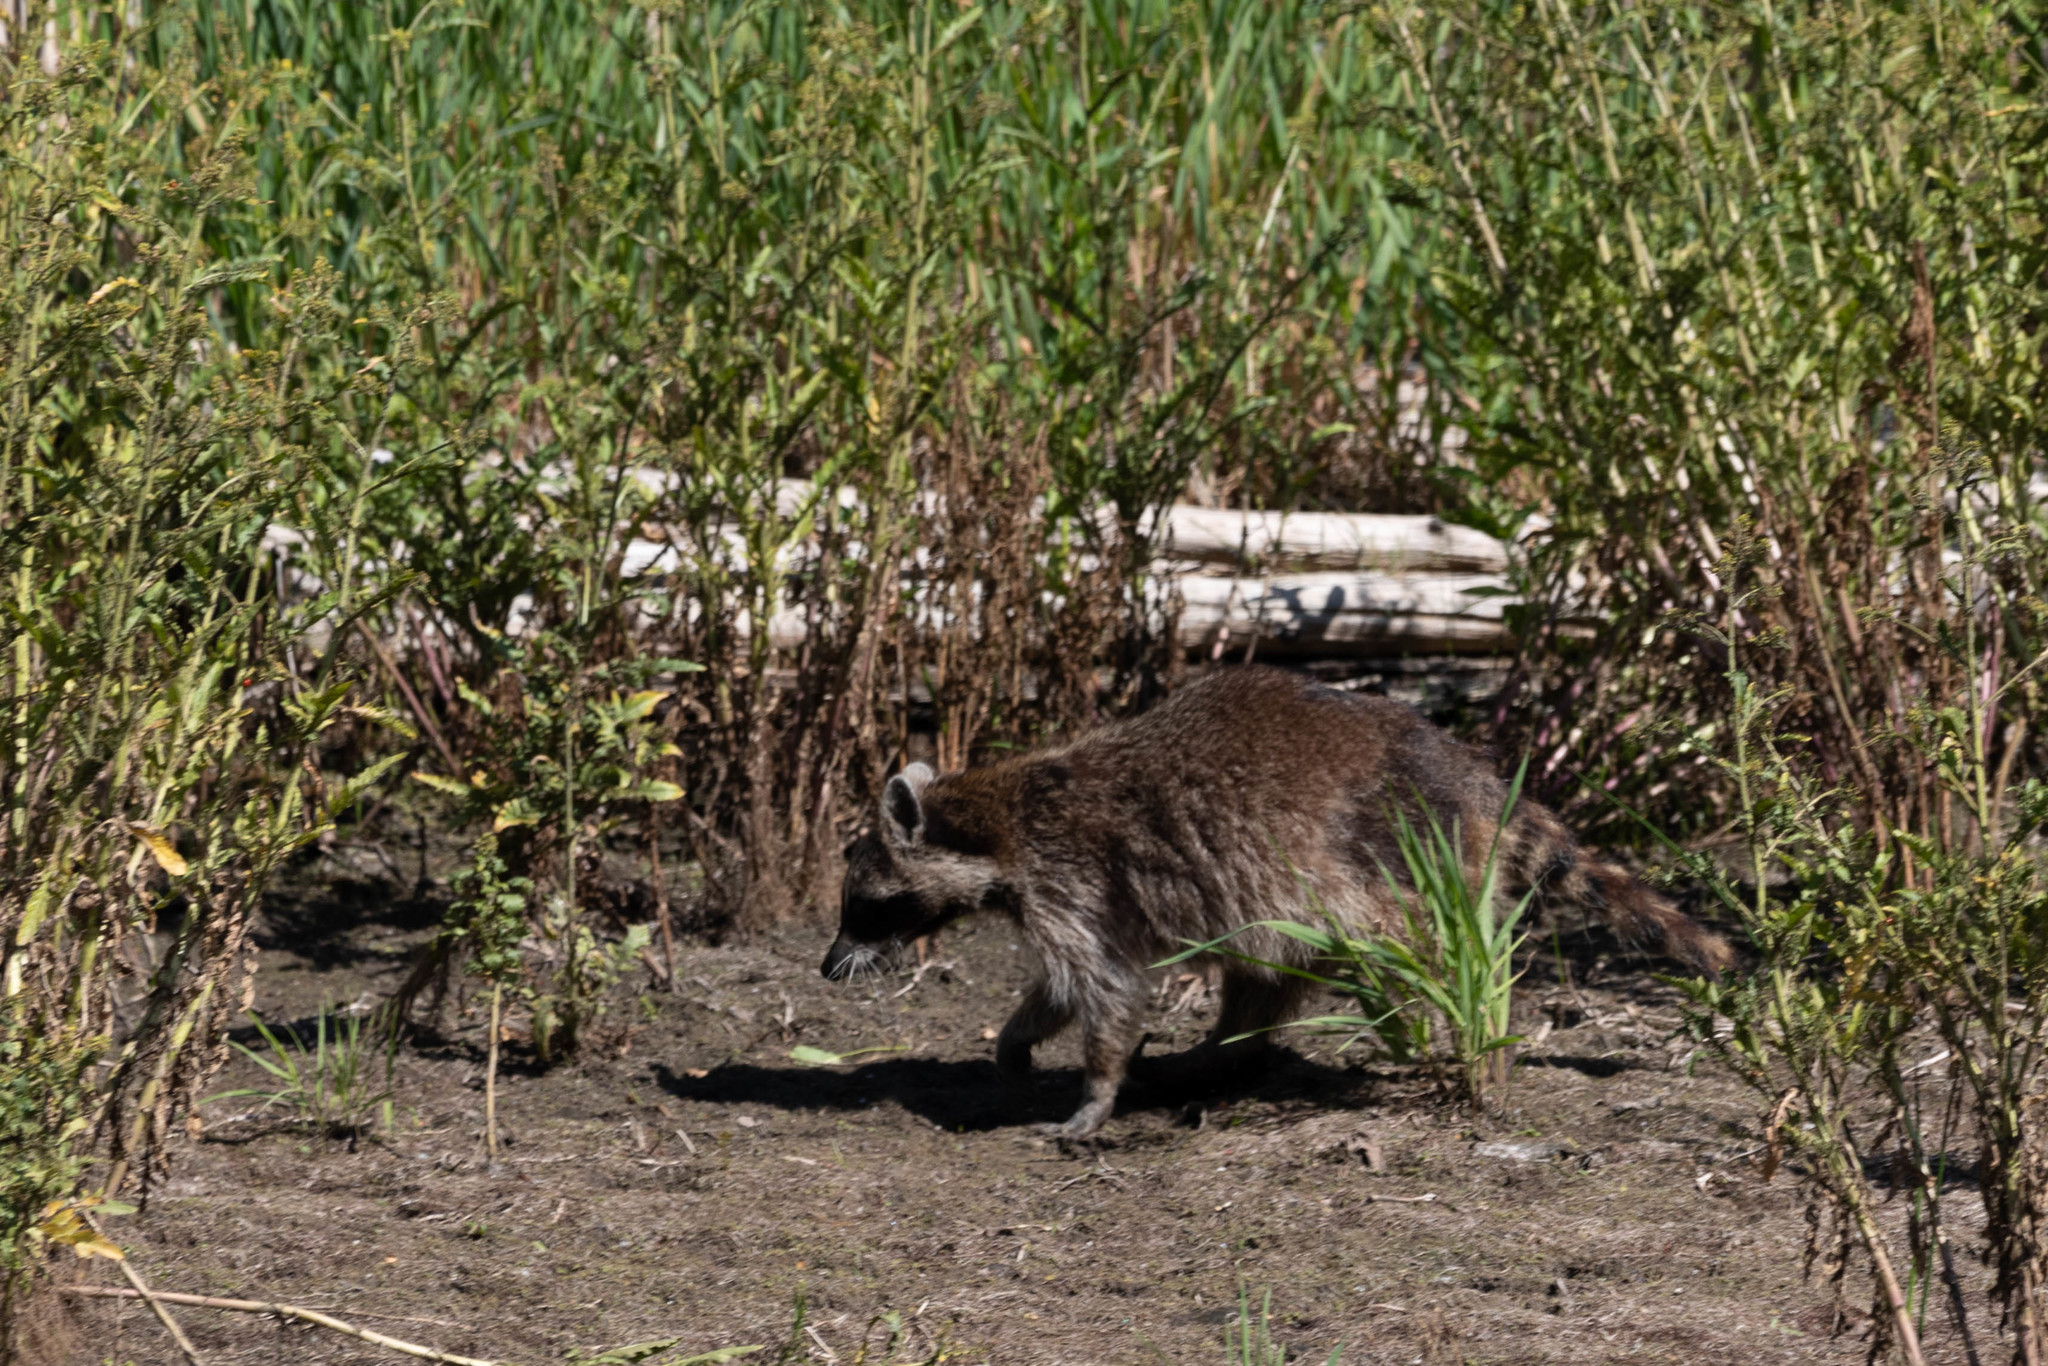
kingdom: Animalia
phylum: Chordata
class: Mammalia
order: Carnivora
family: Procyonidae
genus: Procyon
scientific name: Procyon lotor
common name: Raccoon
